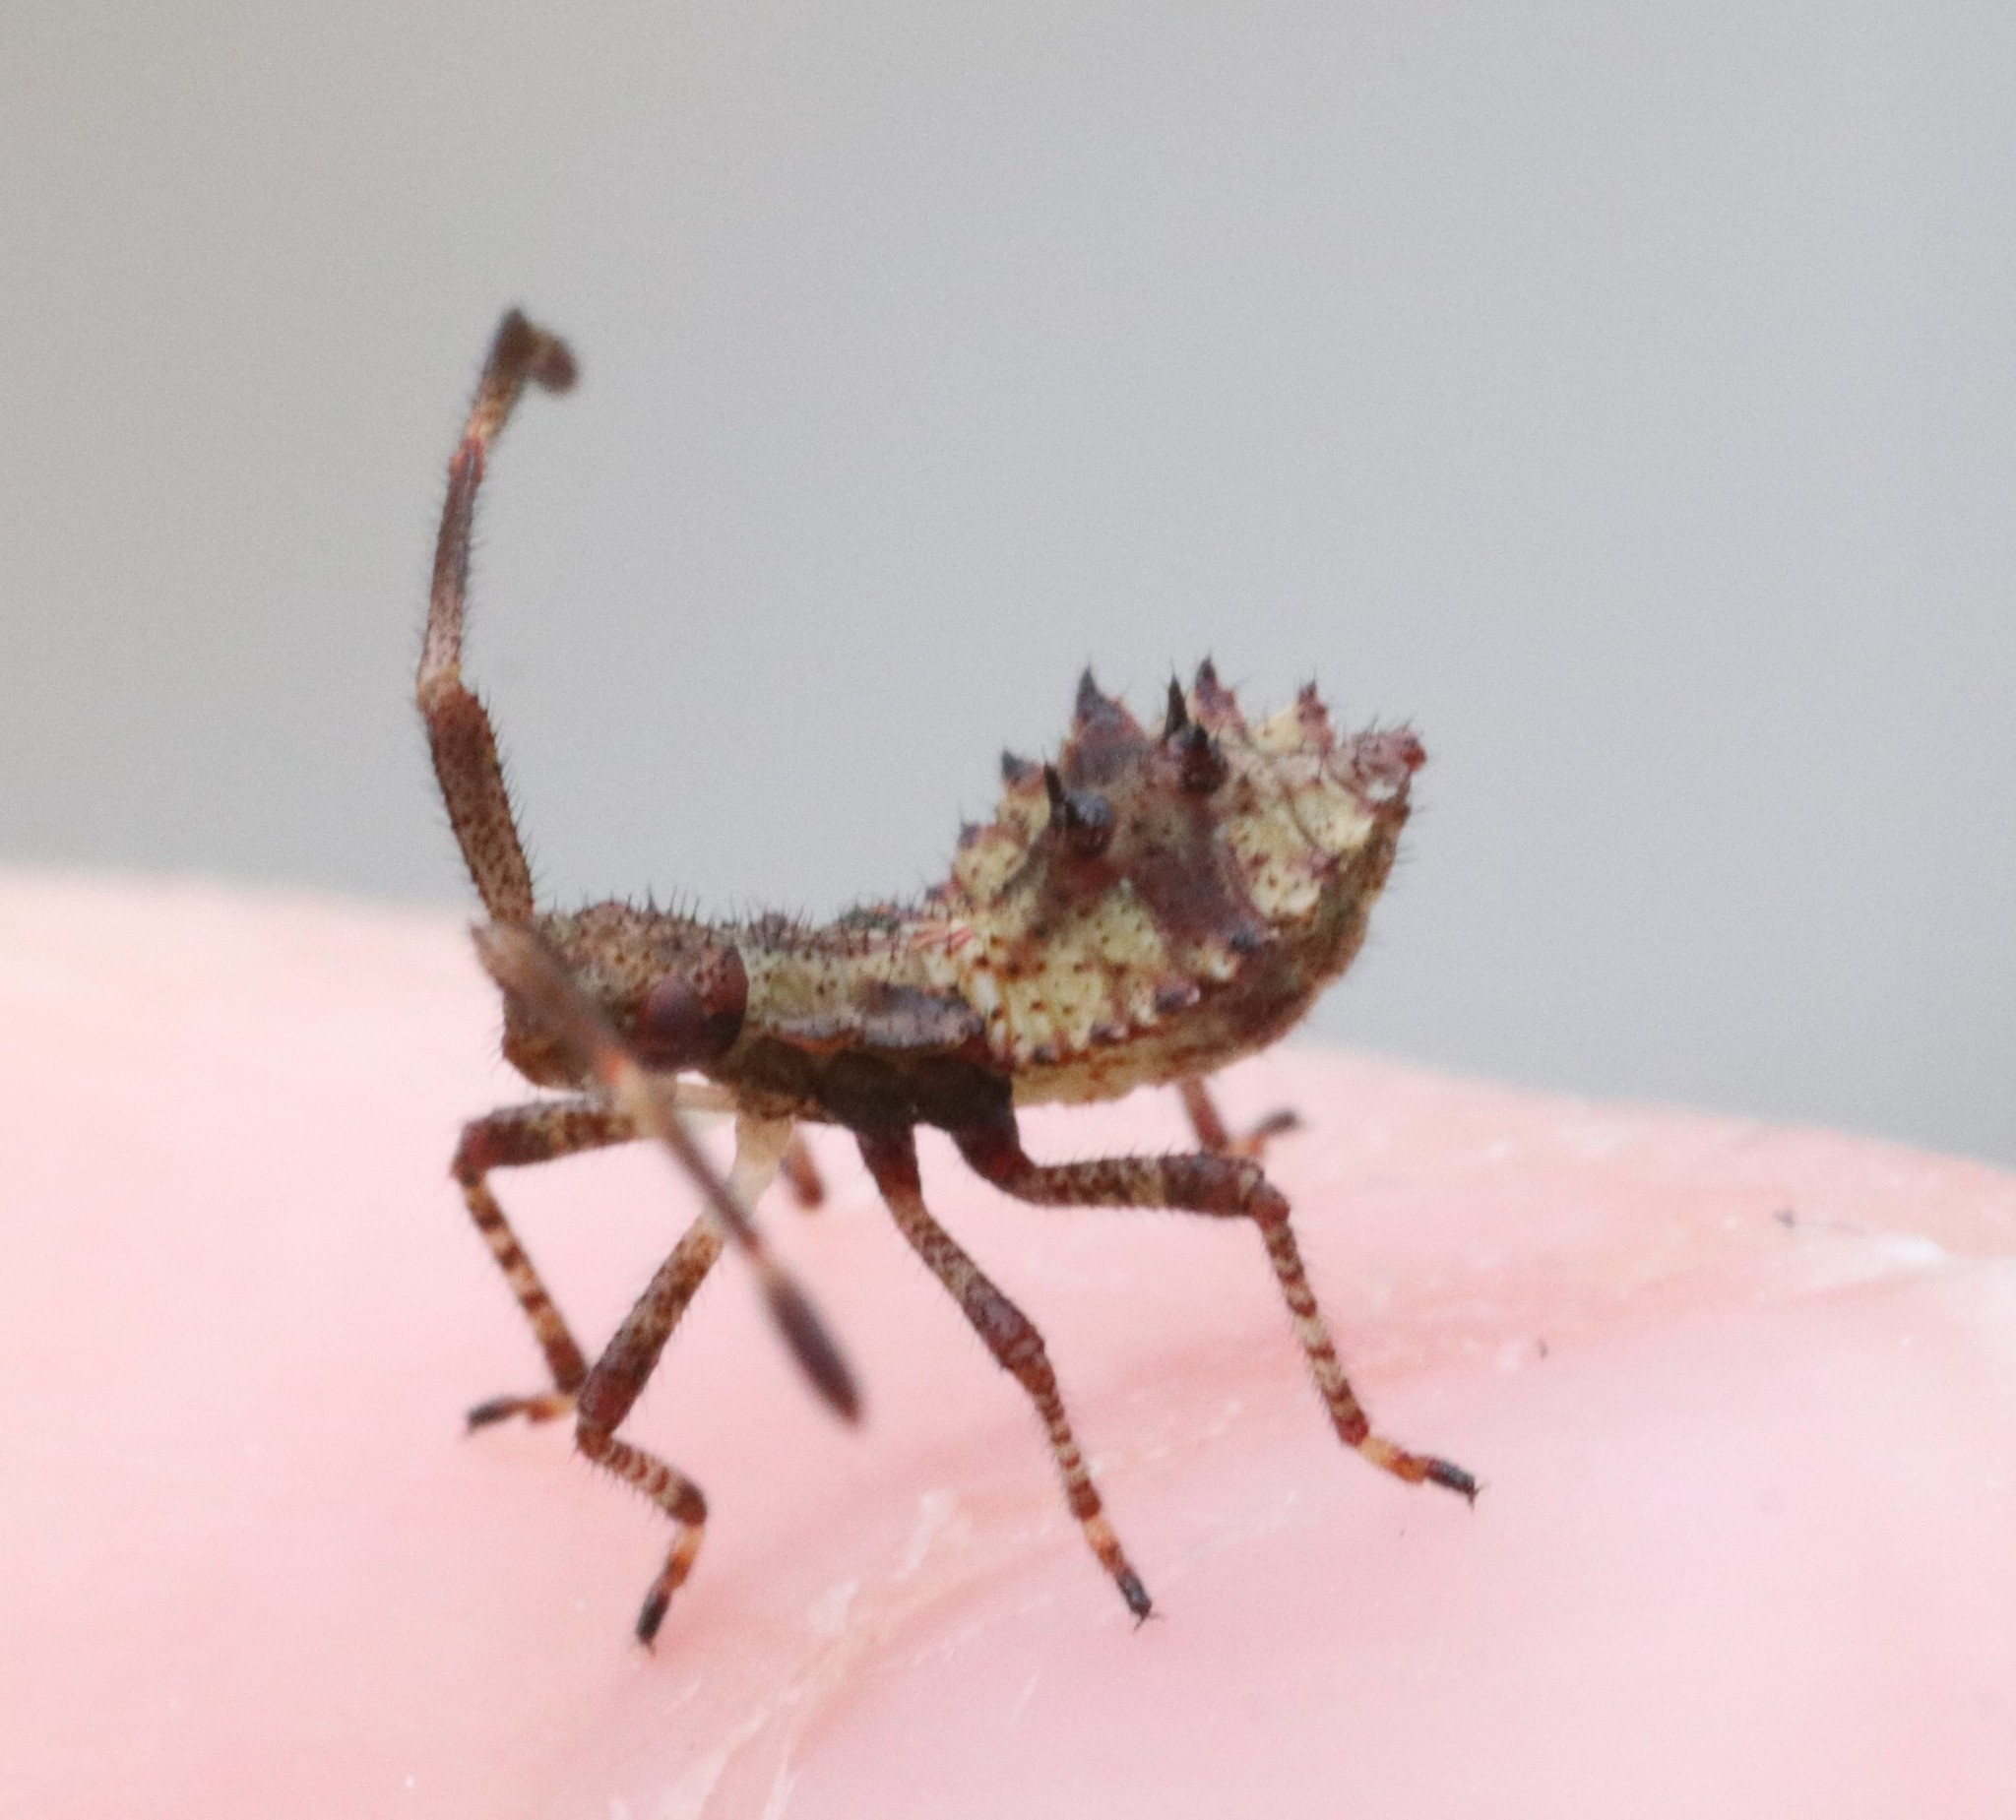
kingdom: Animalia
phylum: Arthropoda
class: Insecta
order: Hemiptera
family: Coreidae
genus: Coreus
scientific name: Coreus marginatus
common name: Dock bug
